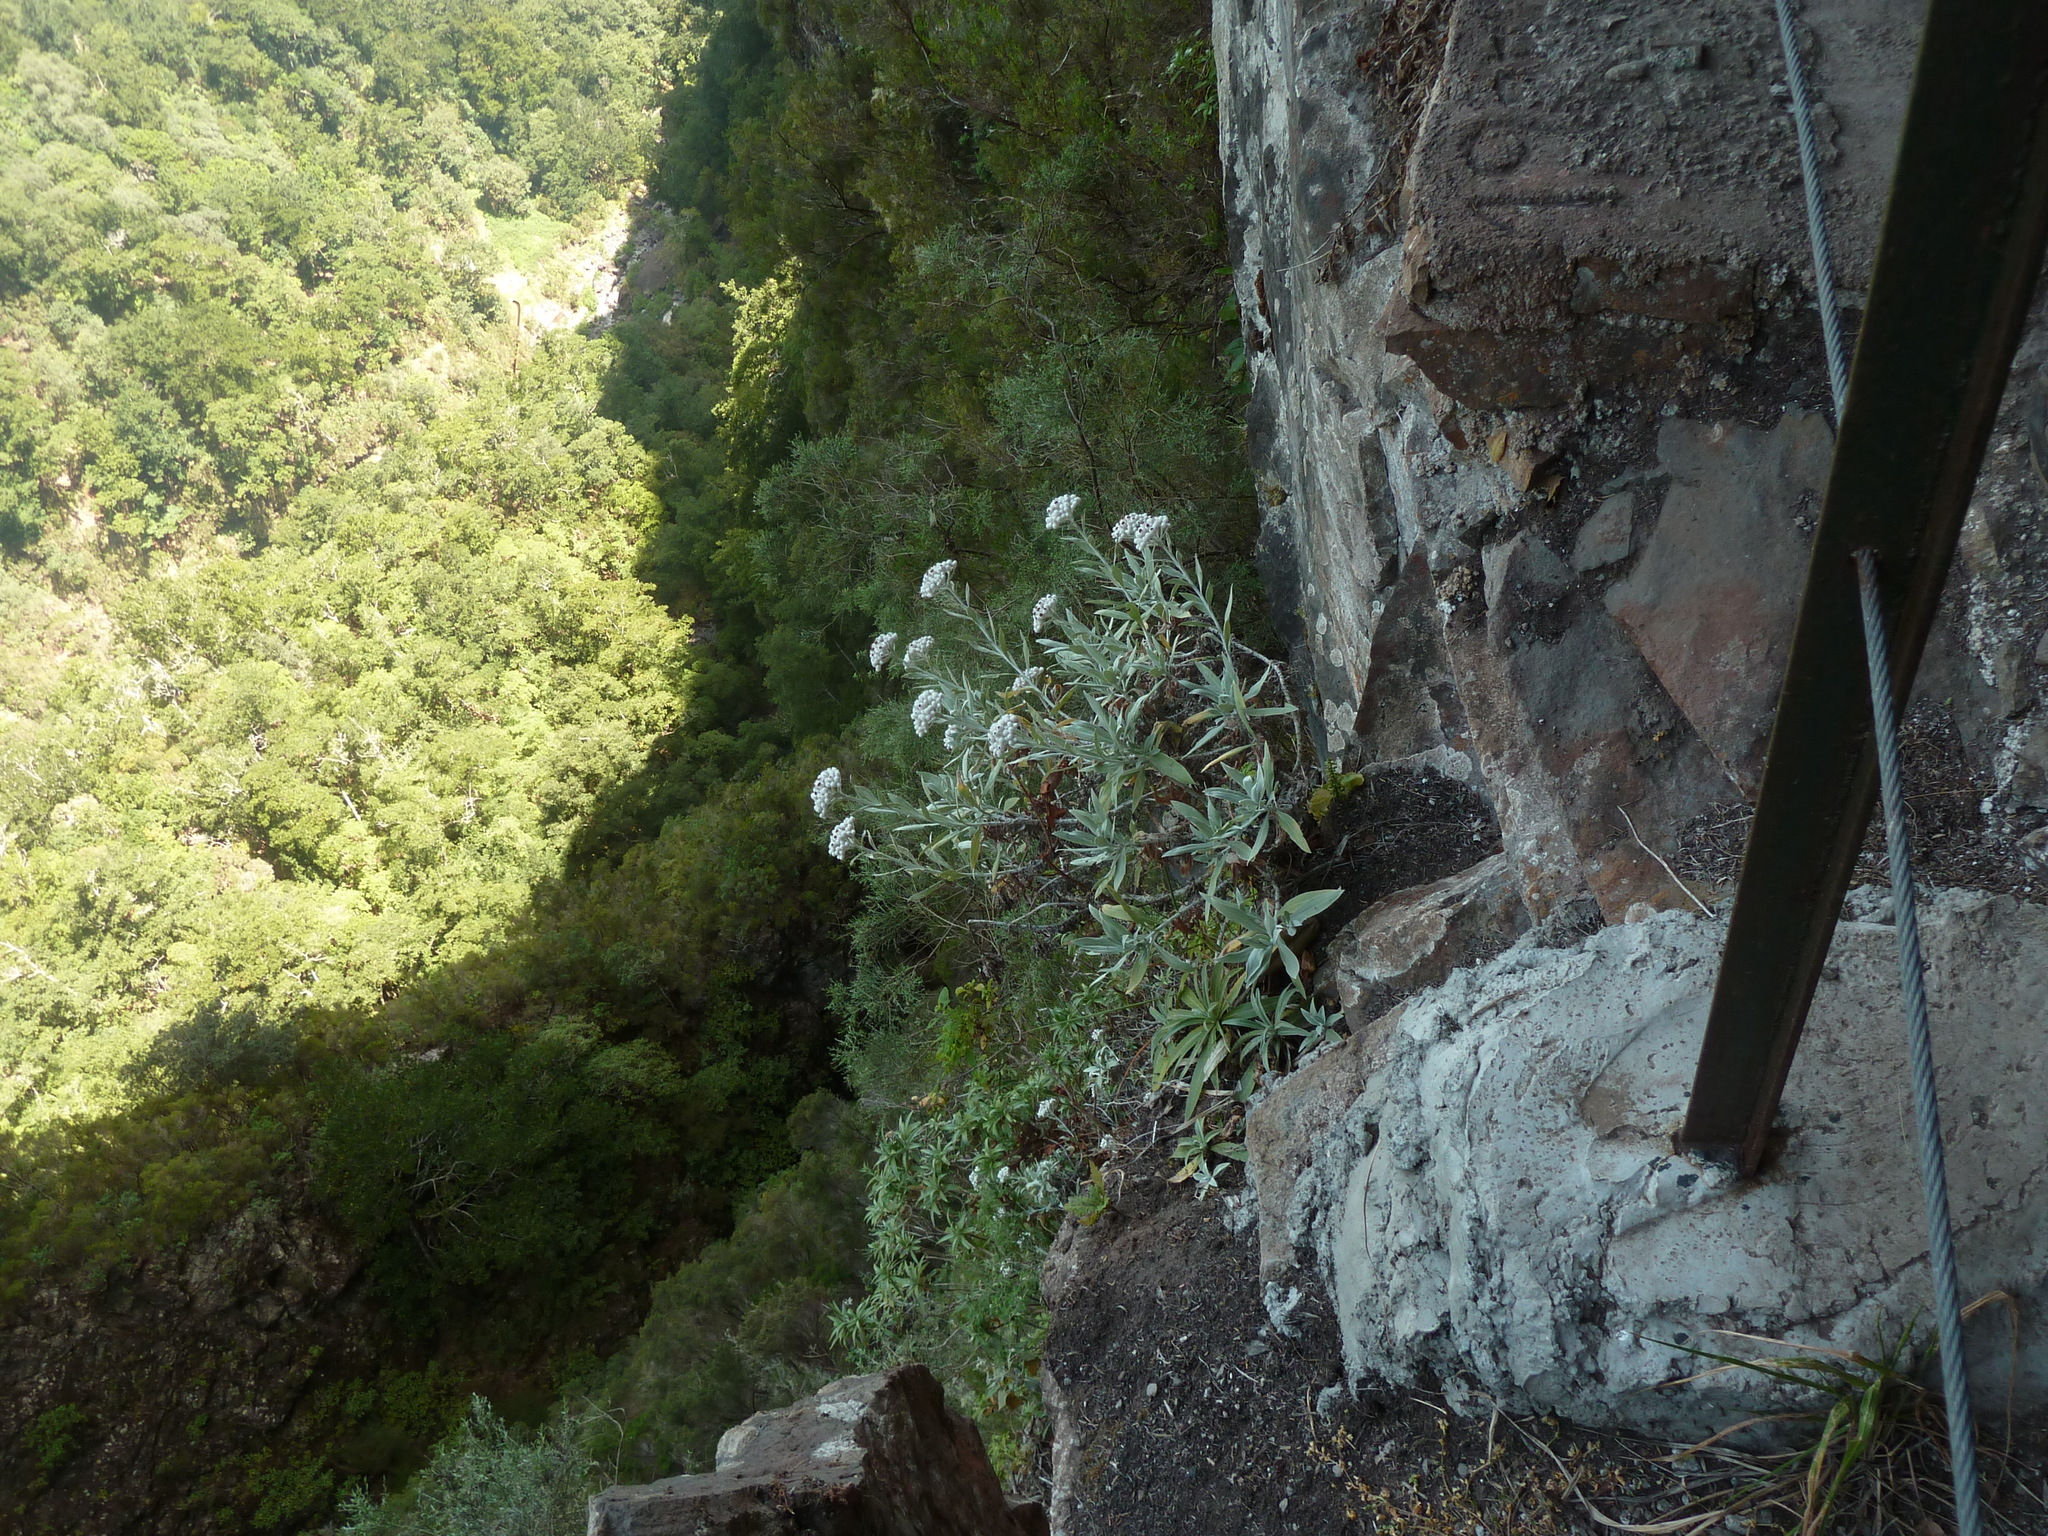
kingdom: Plantae
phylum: Tracheophyta
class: Magnoliopsida
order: Asterales
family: Asteraceae
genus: Helichrysum
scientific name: Helichrysum melaleucum
